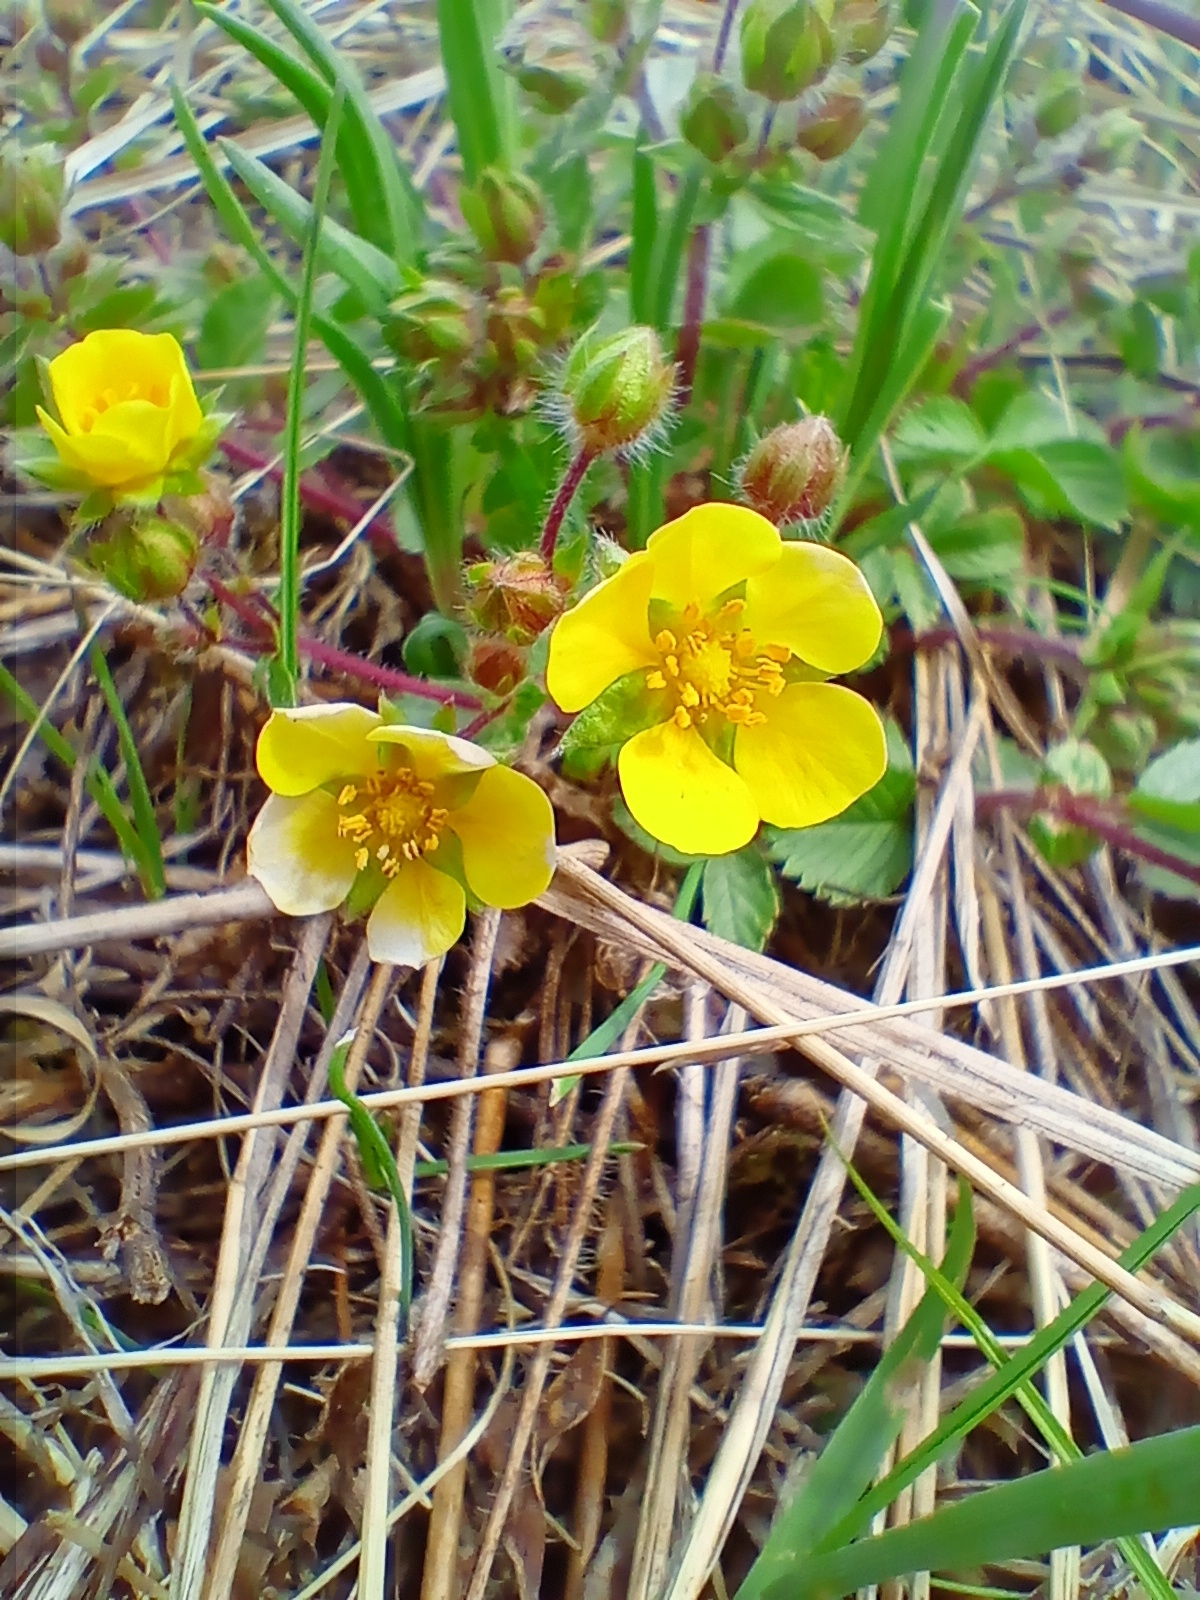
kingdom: Plantae
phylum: Tracheophyta
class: Magnoliopsida
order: Rosales
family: Rosaceae
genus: Potentilla
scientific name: Potentilla fragarioides
